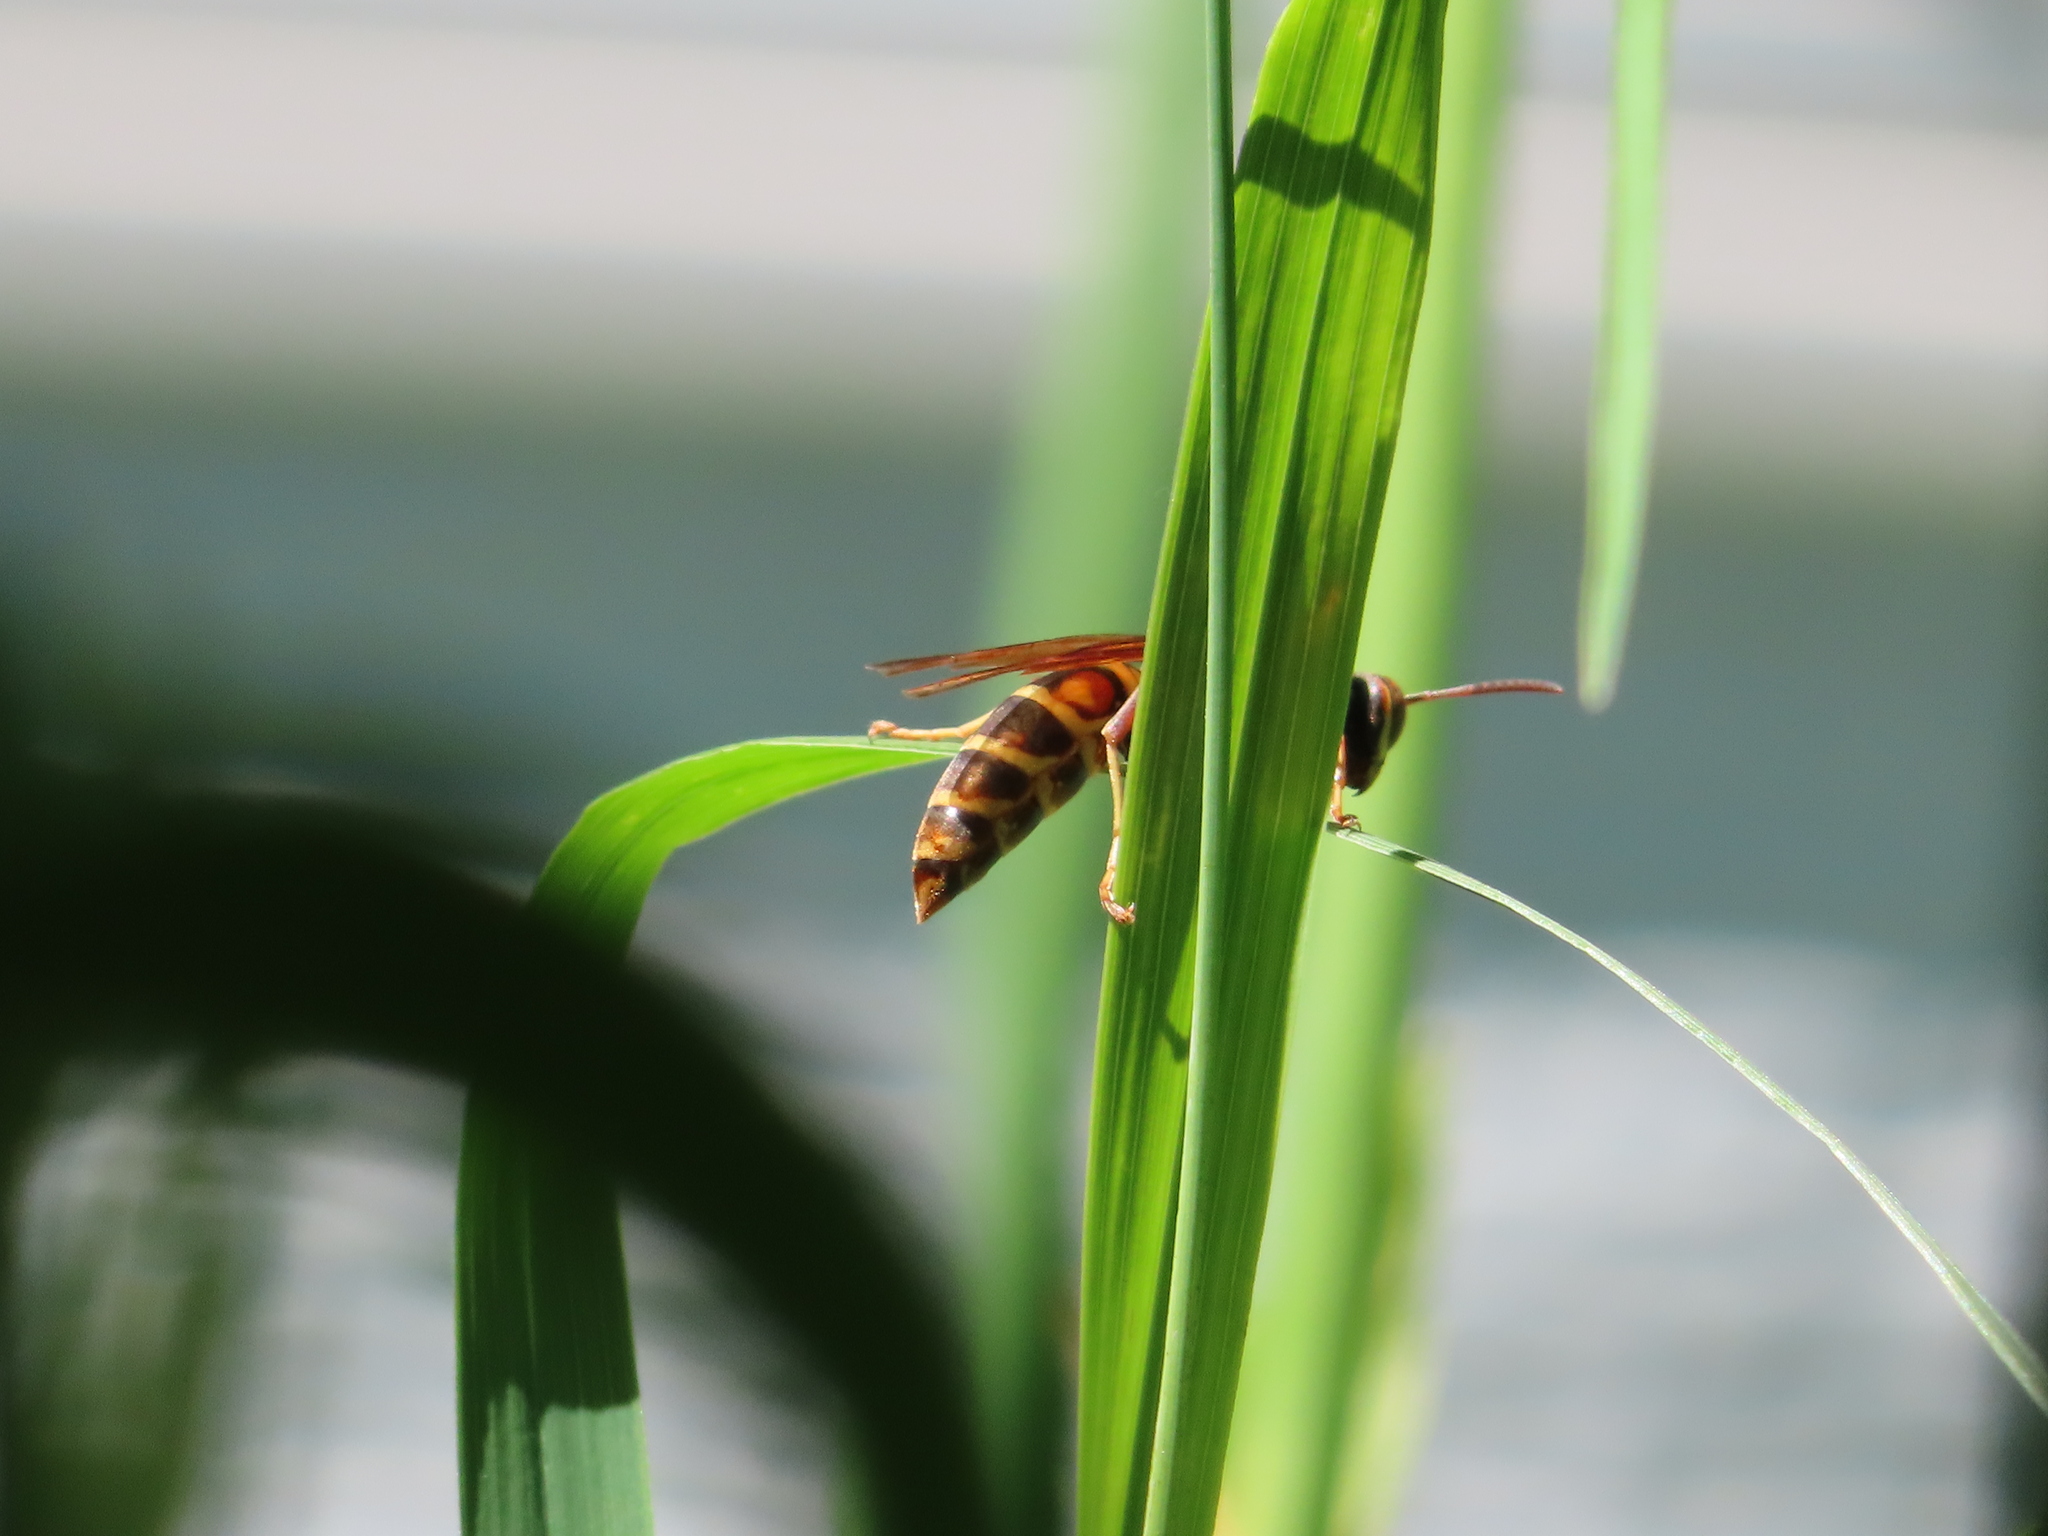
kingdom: Animalia
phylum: Arthropoda
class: Insecta
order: Hymenoptera
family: Eumenidae
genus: Polistes
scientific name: Polistes fuscatus
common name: Dark paper wasp
